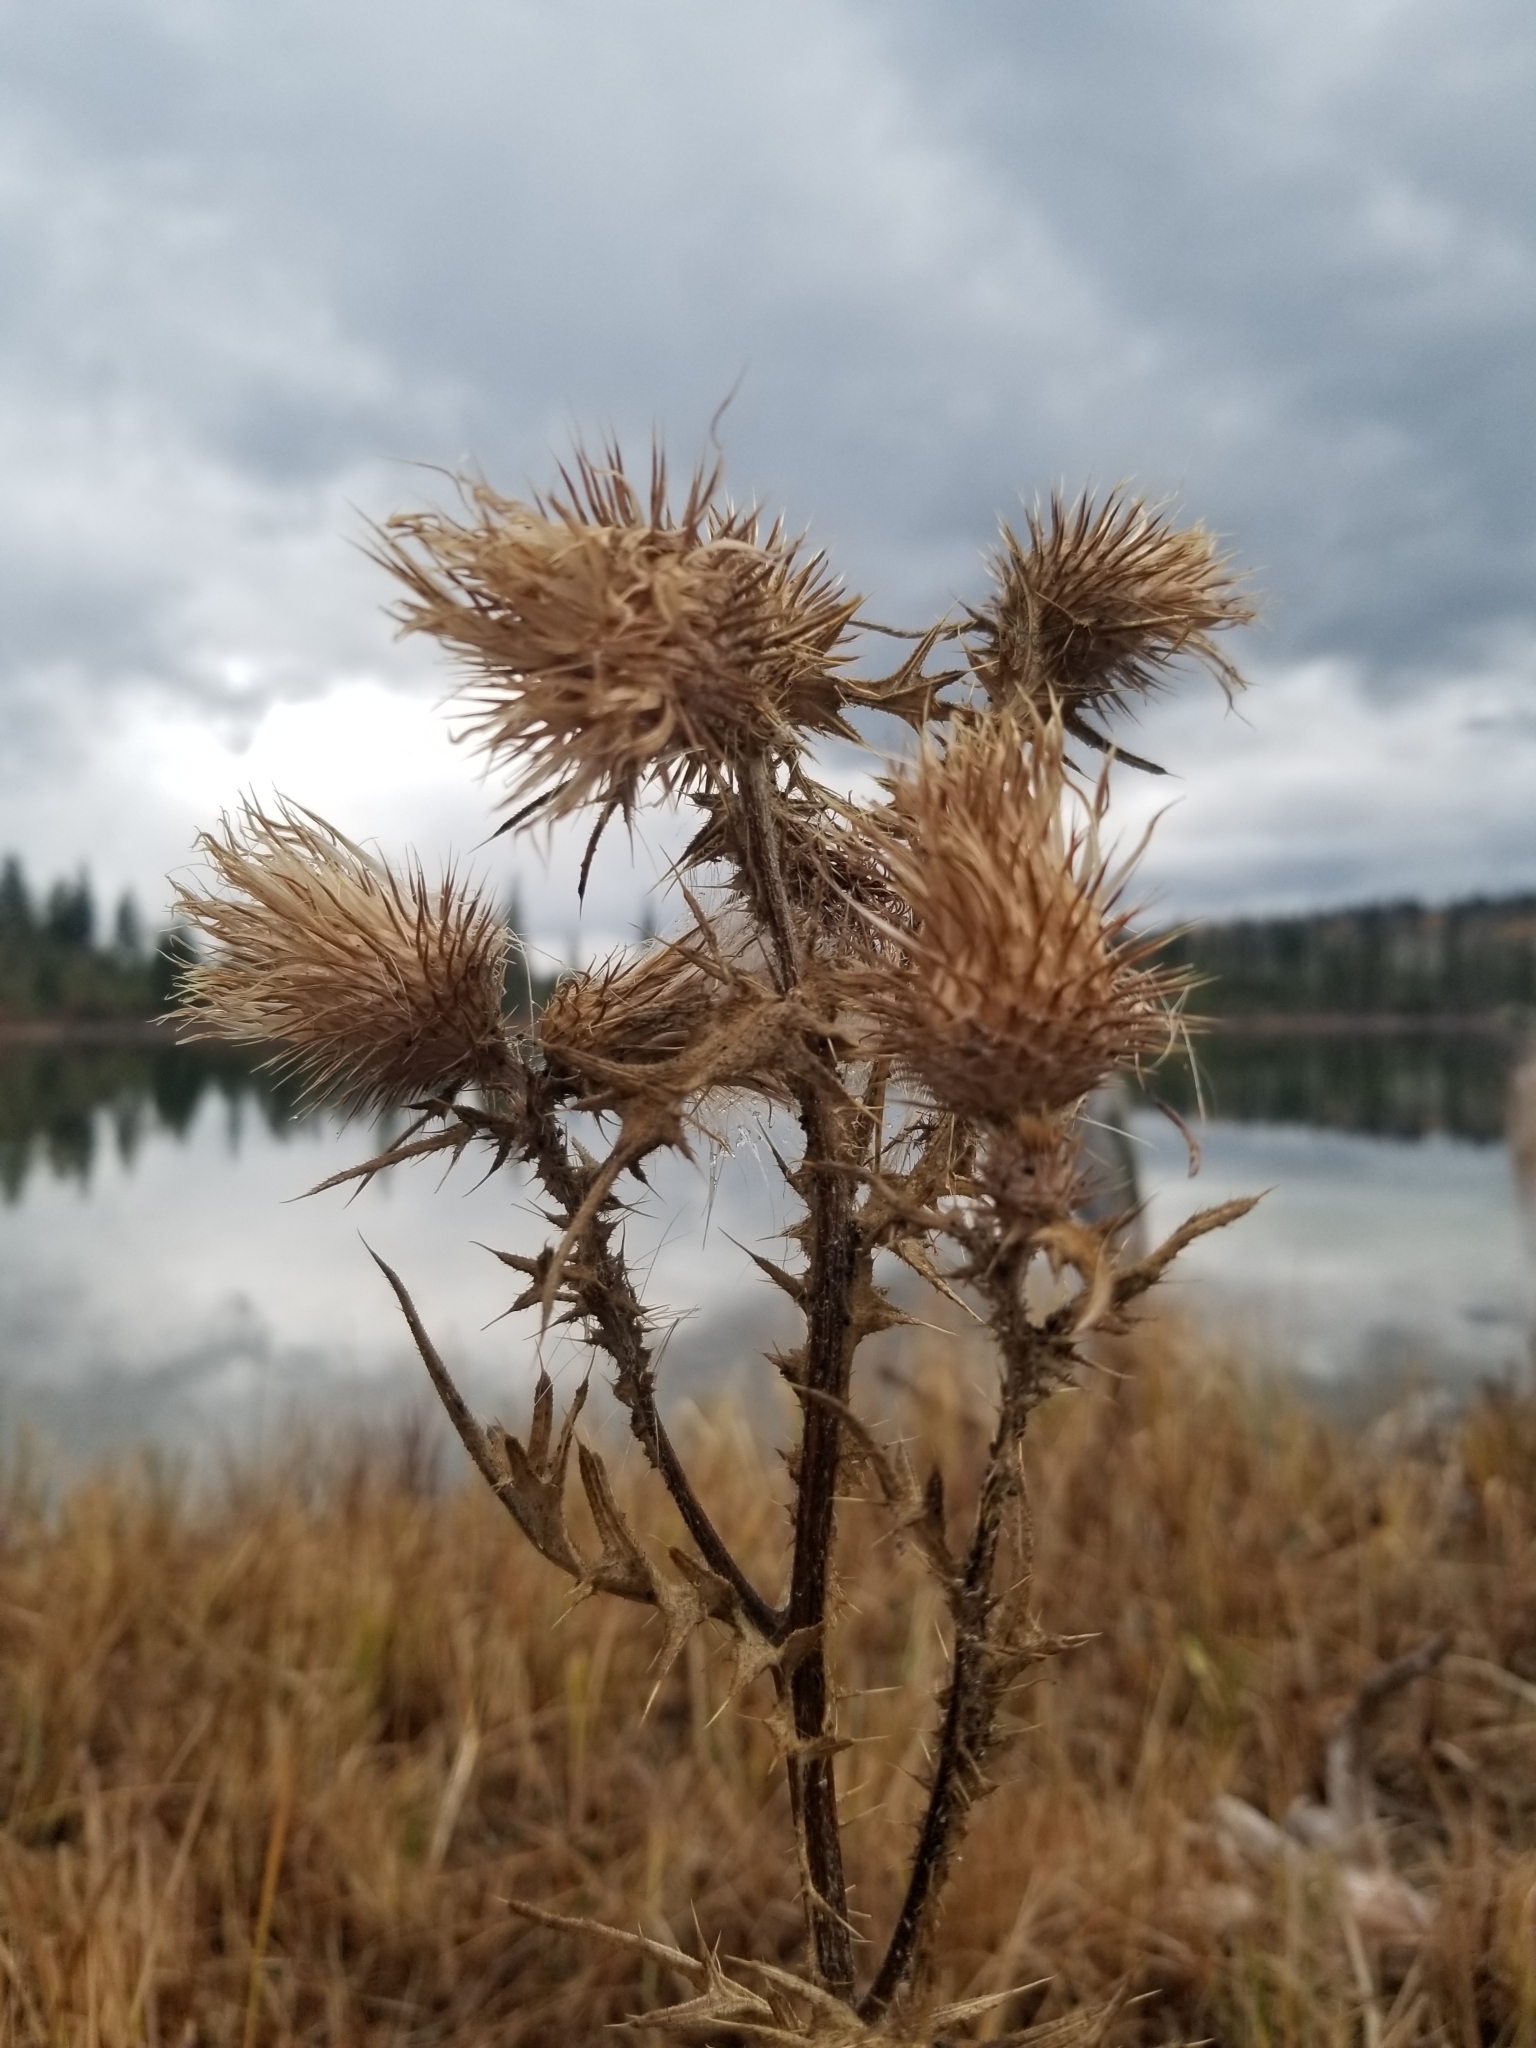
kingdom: Plantae
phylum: Tracheophyta
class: Magnoliopsida
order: Asterales
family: Asteraceae
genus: Cirsium
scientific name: Cirsium vulgare
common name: Bull thistle
